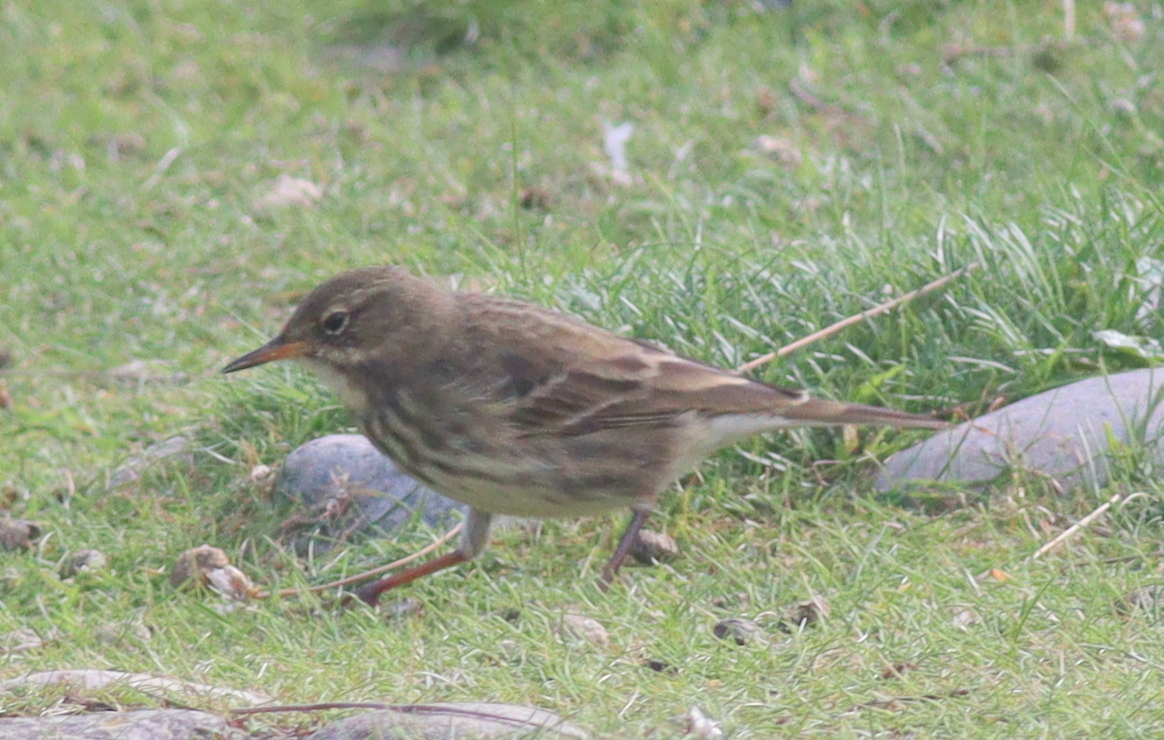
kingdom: Animalia
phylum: Chordata
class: Aves
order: Passeriformes
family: Motacillidae
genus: Anthus
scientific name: Anthus petrosus
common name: Eurasian rock pipit
